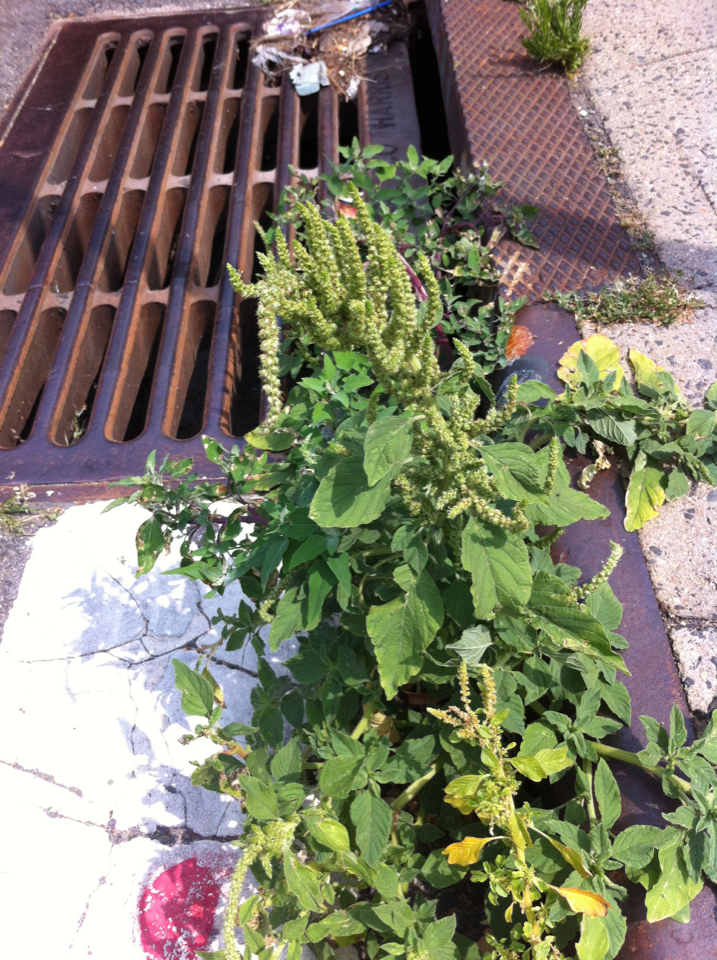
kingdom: Plantae
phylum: Tracheophyta
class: Magnoliopsida
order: Caryophyllales
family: Amaranthaceae
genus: Amaranthus
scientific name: Amaranthus
